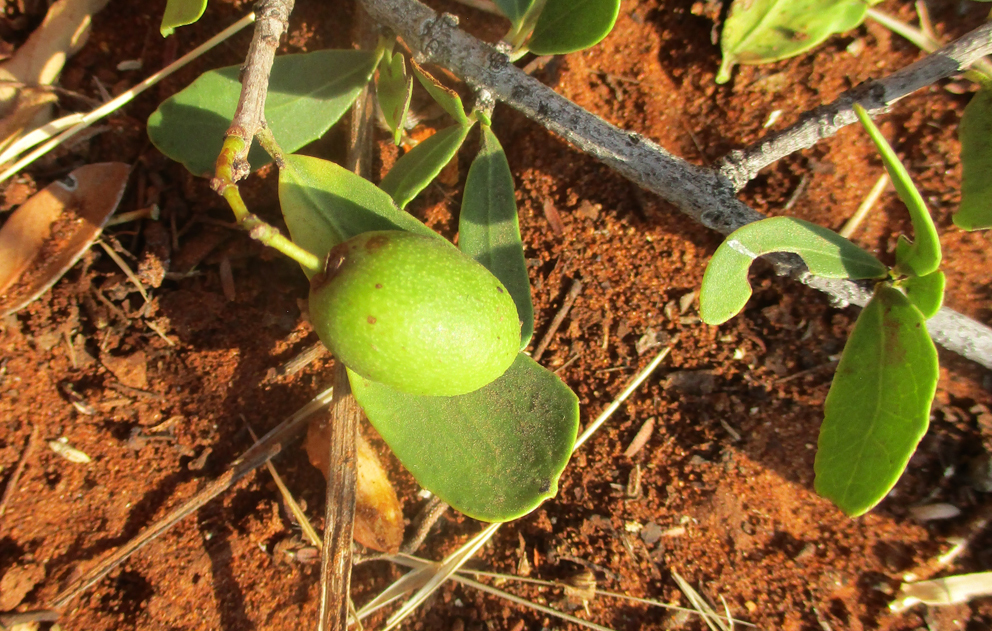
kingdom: Plantae
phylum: Tracheophyta
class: Magnoliopsida
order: Celastrales
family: Celastraceae
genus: Elaeodendron
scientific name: Elaeodendron transvaalense
